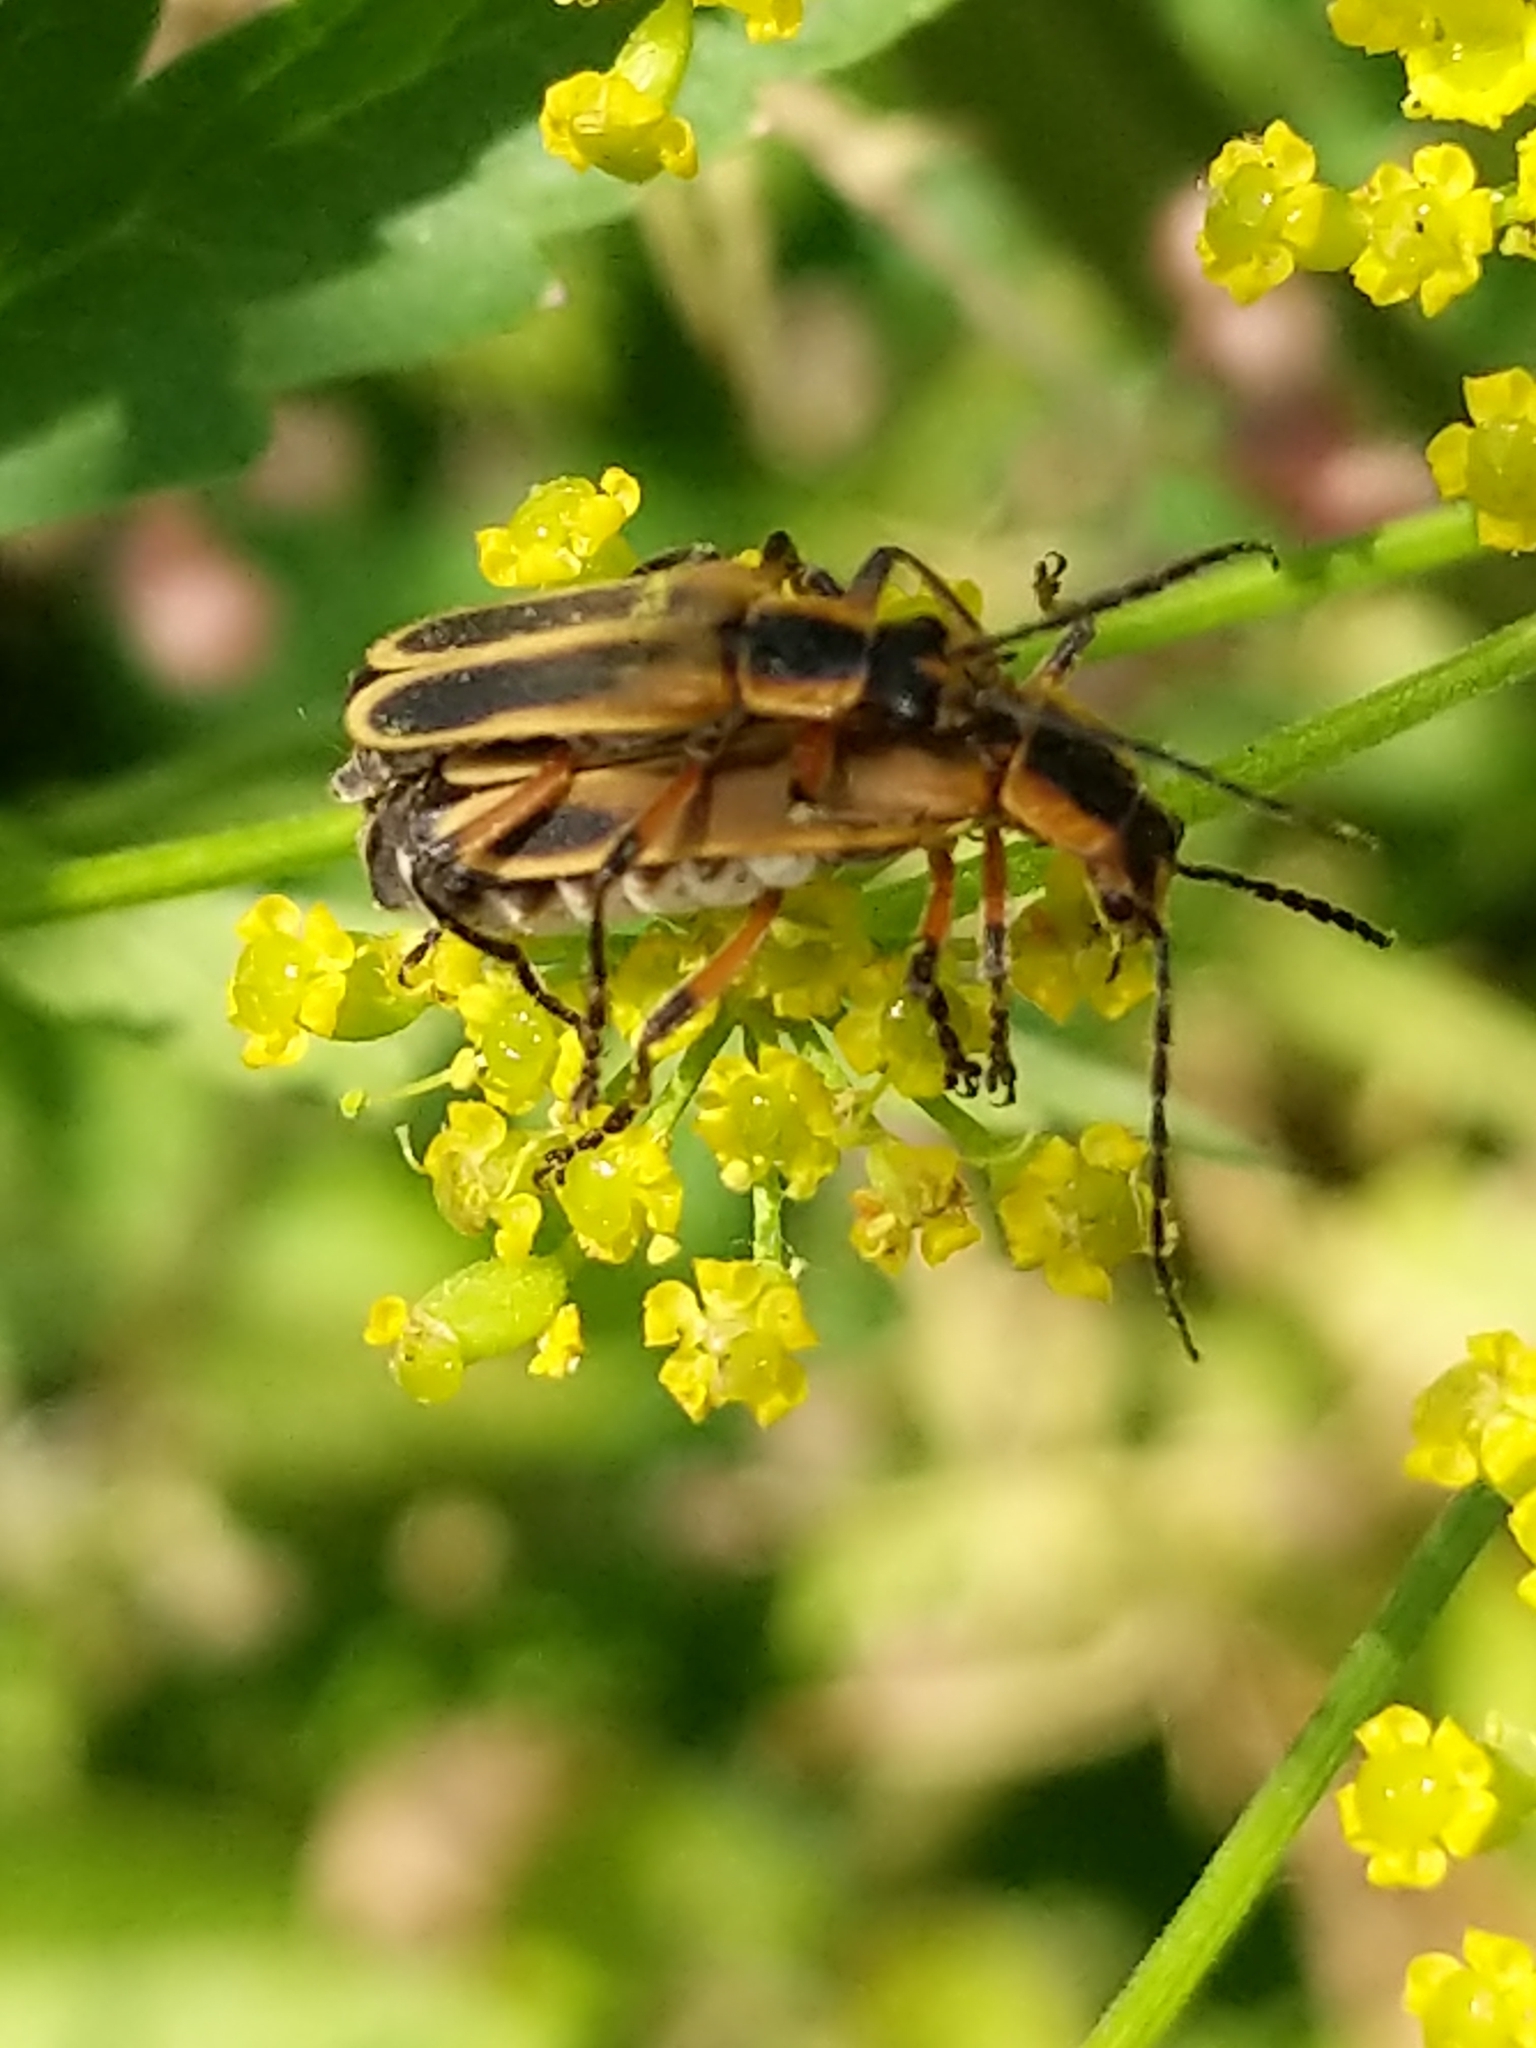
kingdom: Animalia
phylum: Arthropoda
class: Insecta
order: Coleoptera
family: Cantharidae
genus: Chauliognathus
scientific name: Chauliognathus marginatus
